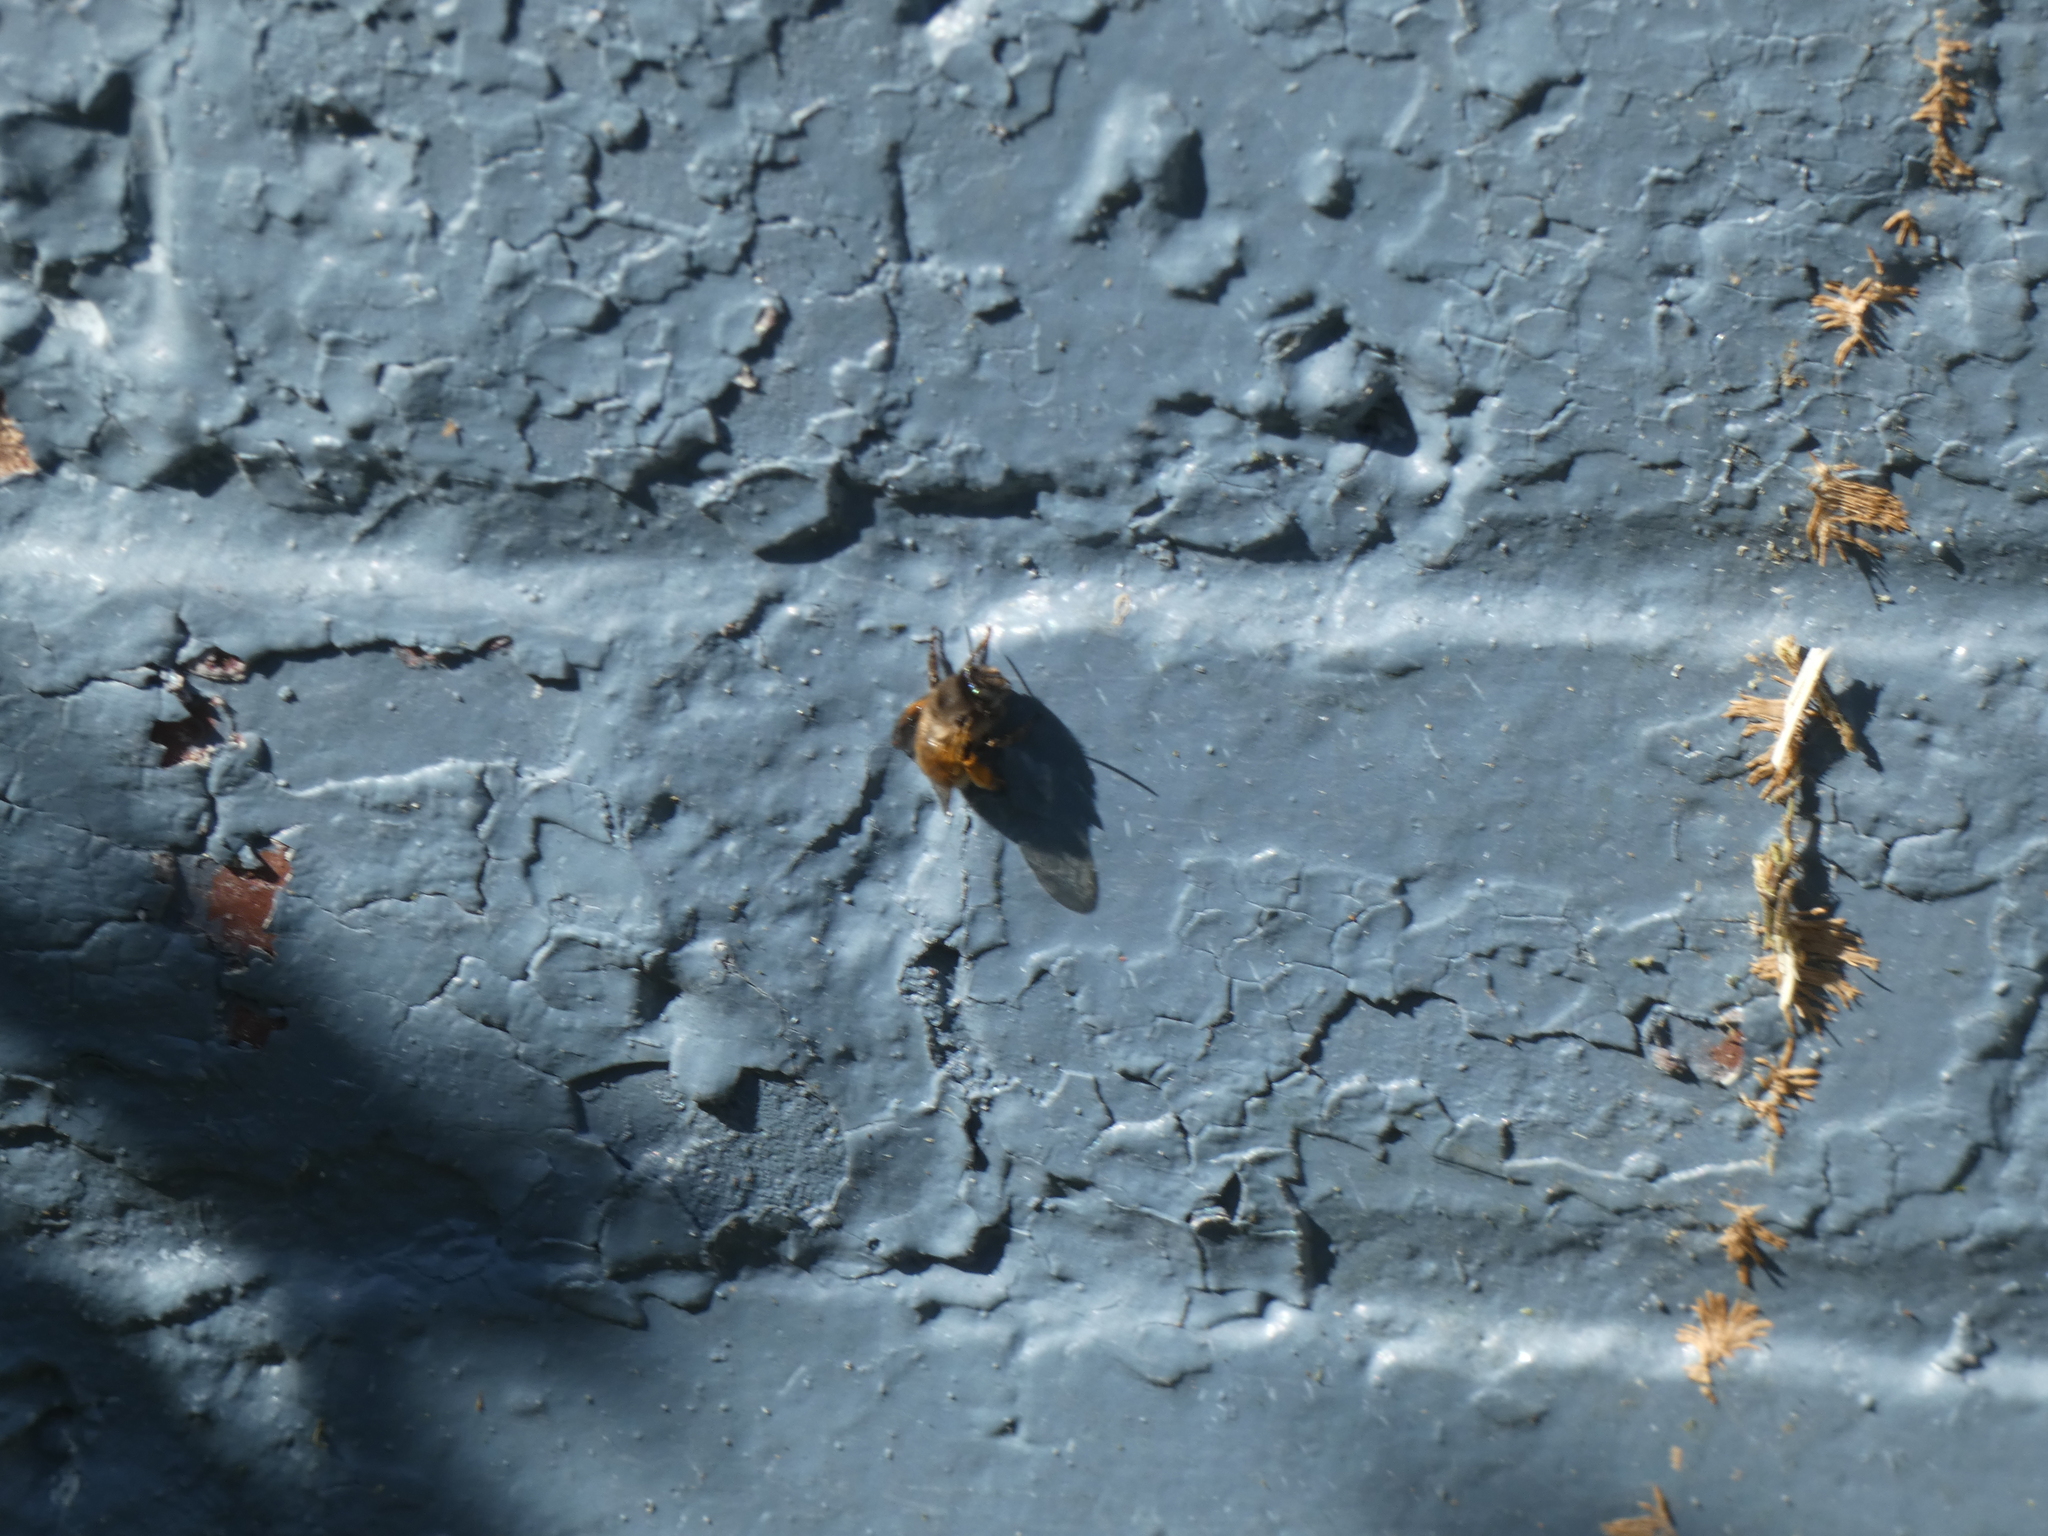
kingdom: Animalia
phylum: Arthropoda
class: Insecta
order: Hymenoptera
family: Apidae
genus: Anthophora
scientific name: Anthophora villosula
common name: Asian shaggy digger
